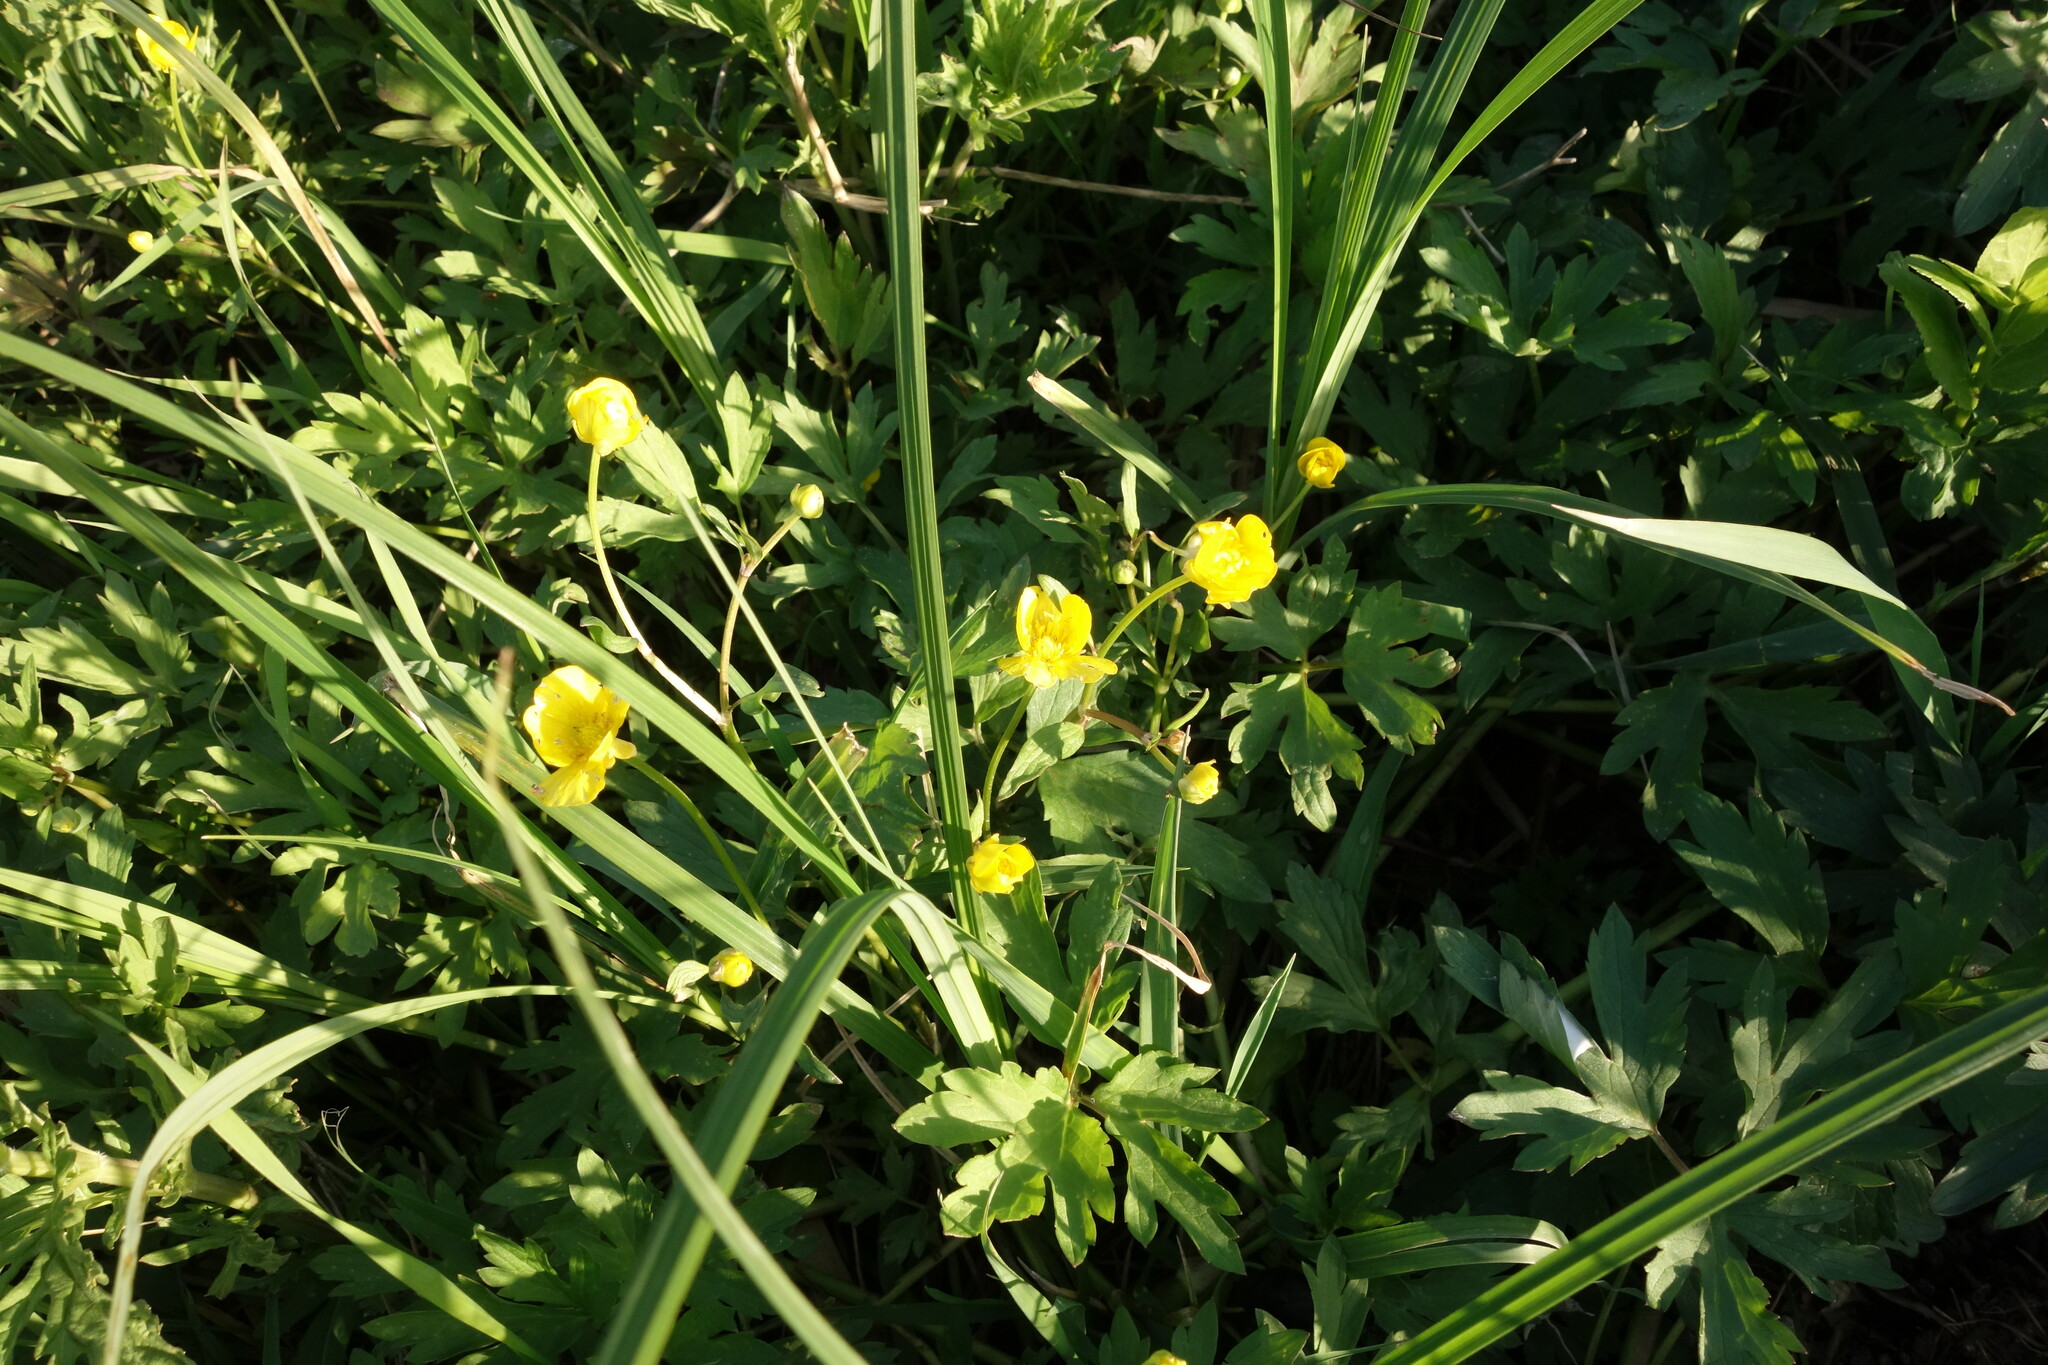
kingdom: Plantae
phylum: Tracheophyta
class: Magnoliopsida
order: Ranunculales
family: Ranunculaceae
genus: Ranunculus
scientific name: Ranunculus repens
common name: Creeping buttercup
